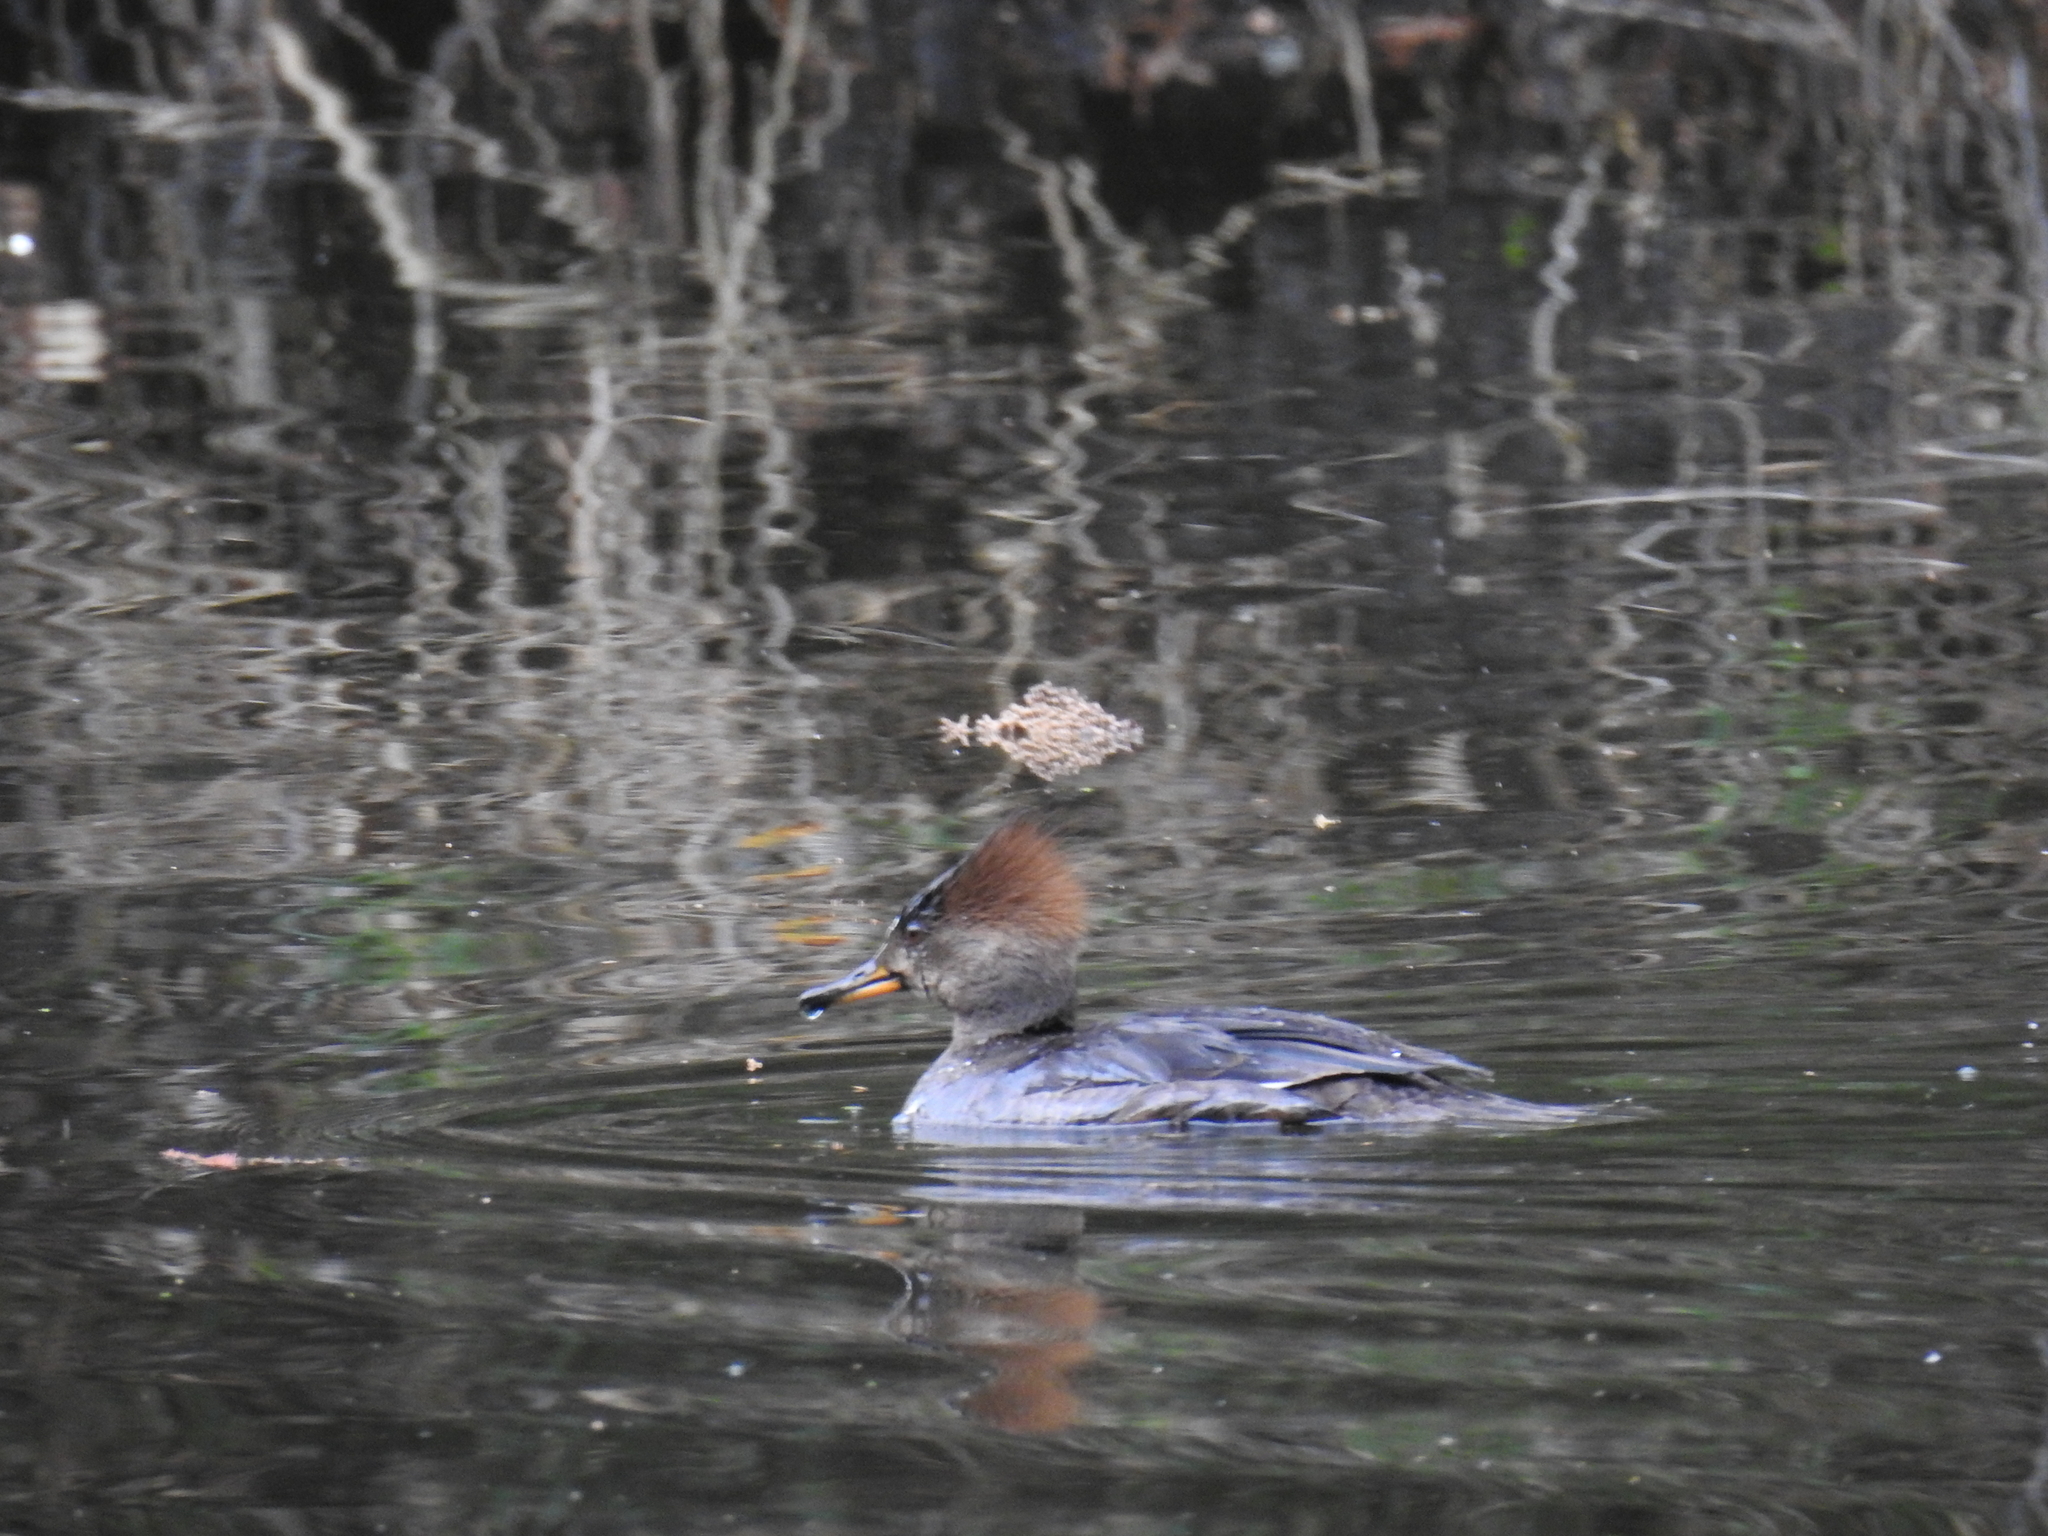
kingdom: Animalia
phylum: Chordata
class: Aves
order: Anseriformes
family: Anatidae
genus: Lophodytes
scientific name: Lophodytes cucullatus
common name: Hooded merganser
